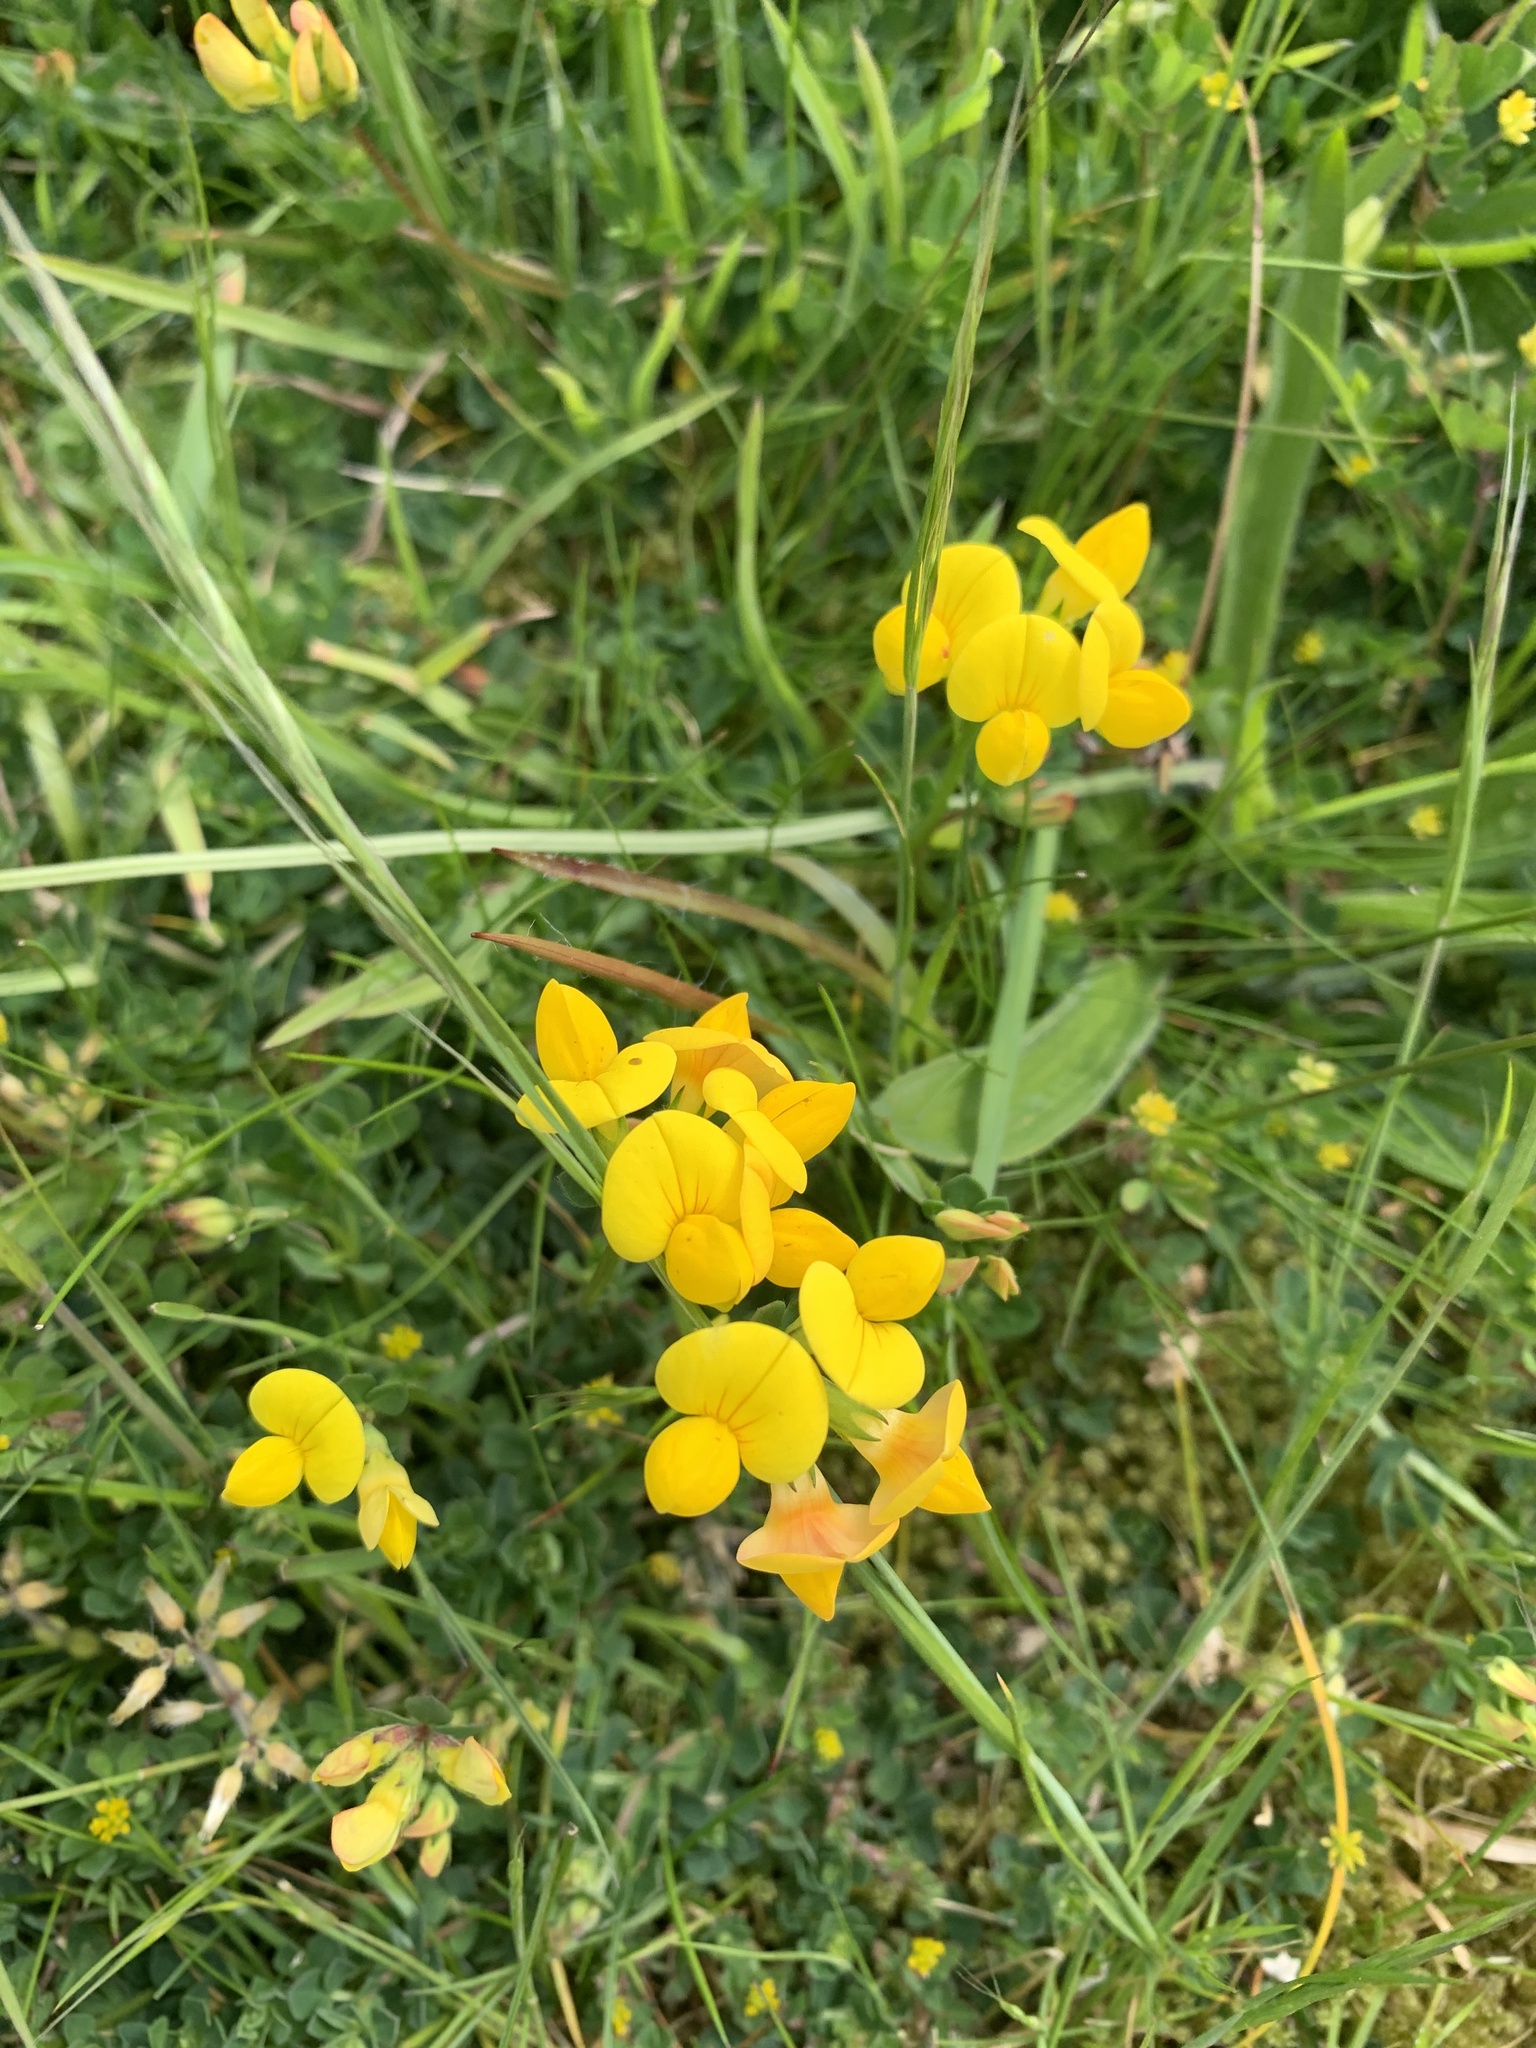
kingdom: Plantae
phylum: Tracheophyta
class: Magnoliopsida
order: Fabales
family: Fabaceae
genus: Lotus
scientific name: Lotus corniculatus
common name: Common bird's-foot-trefoil
